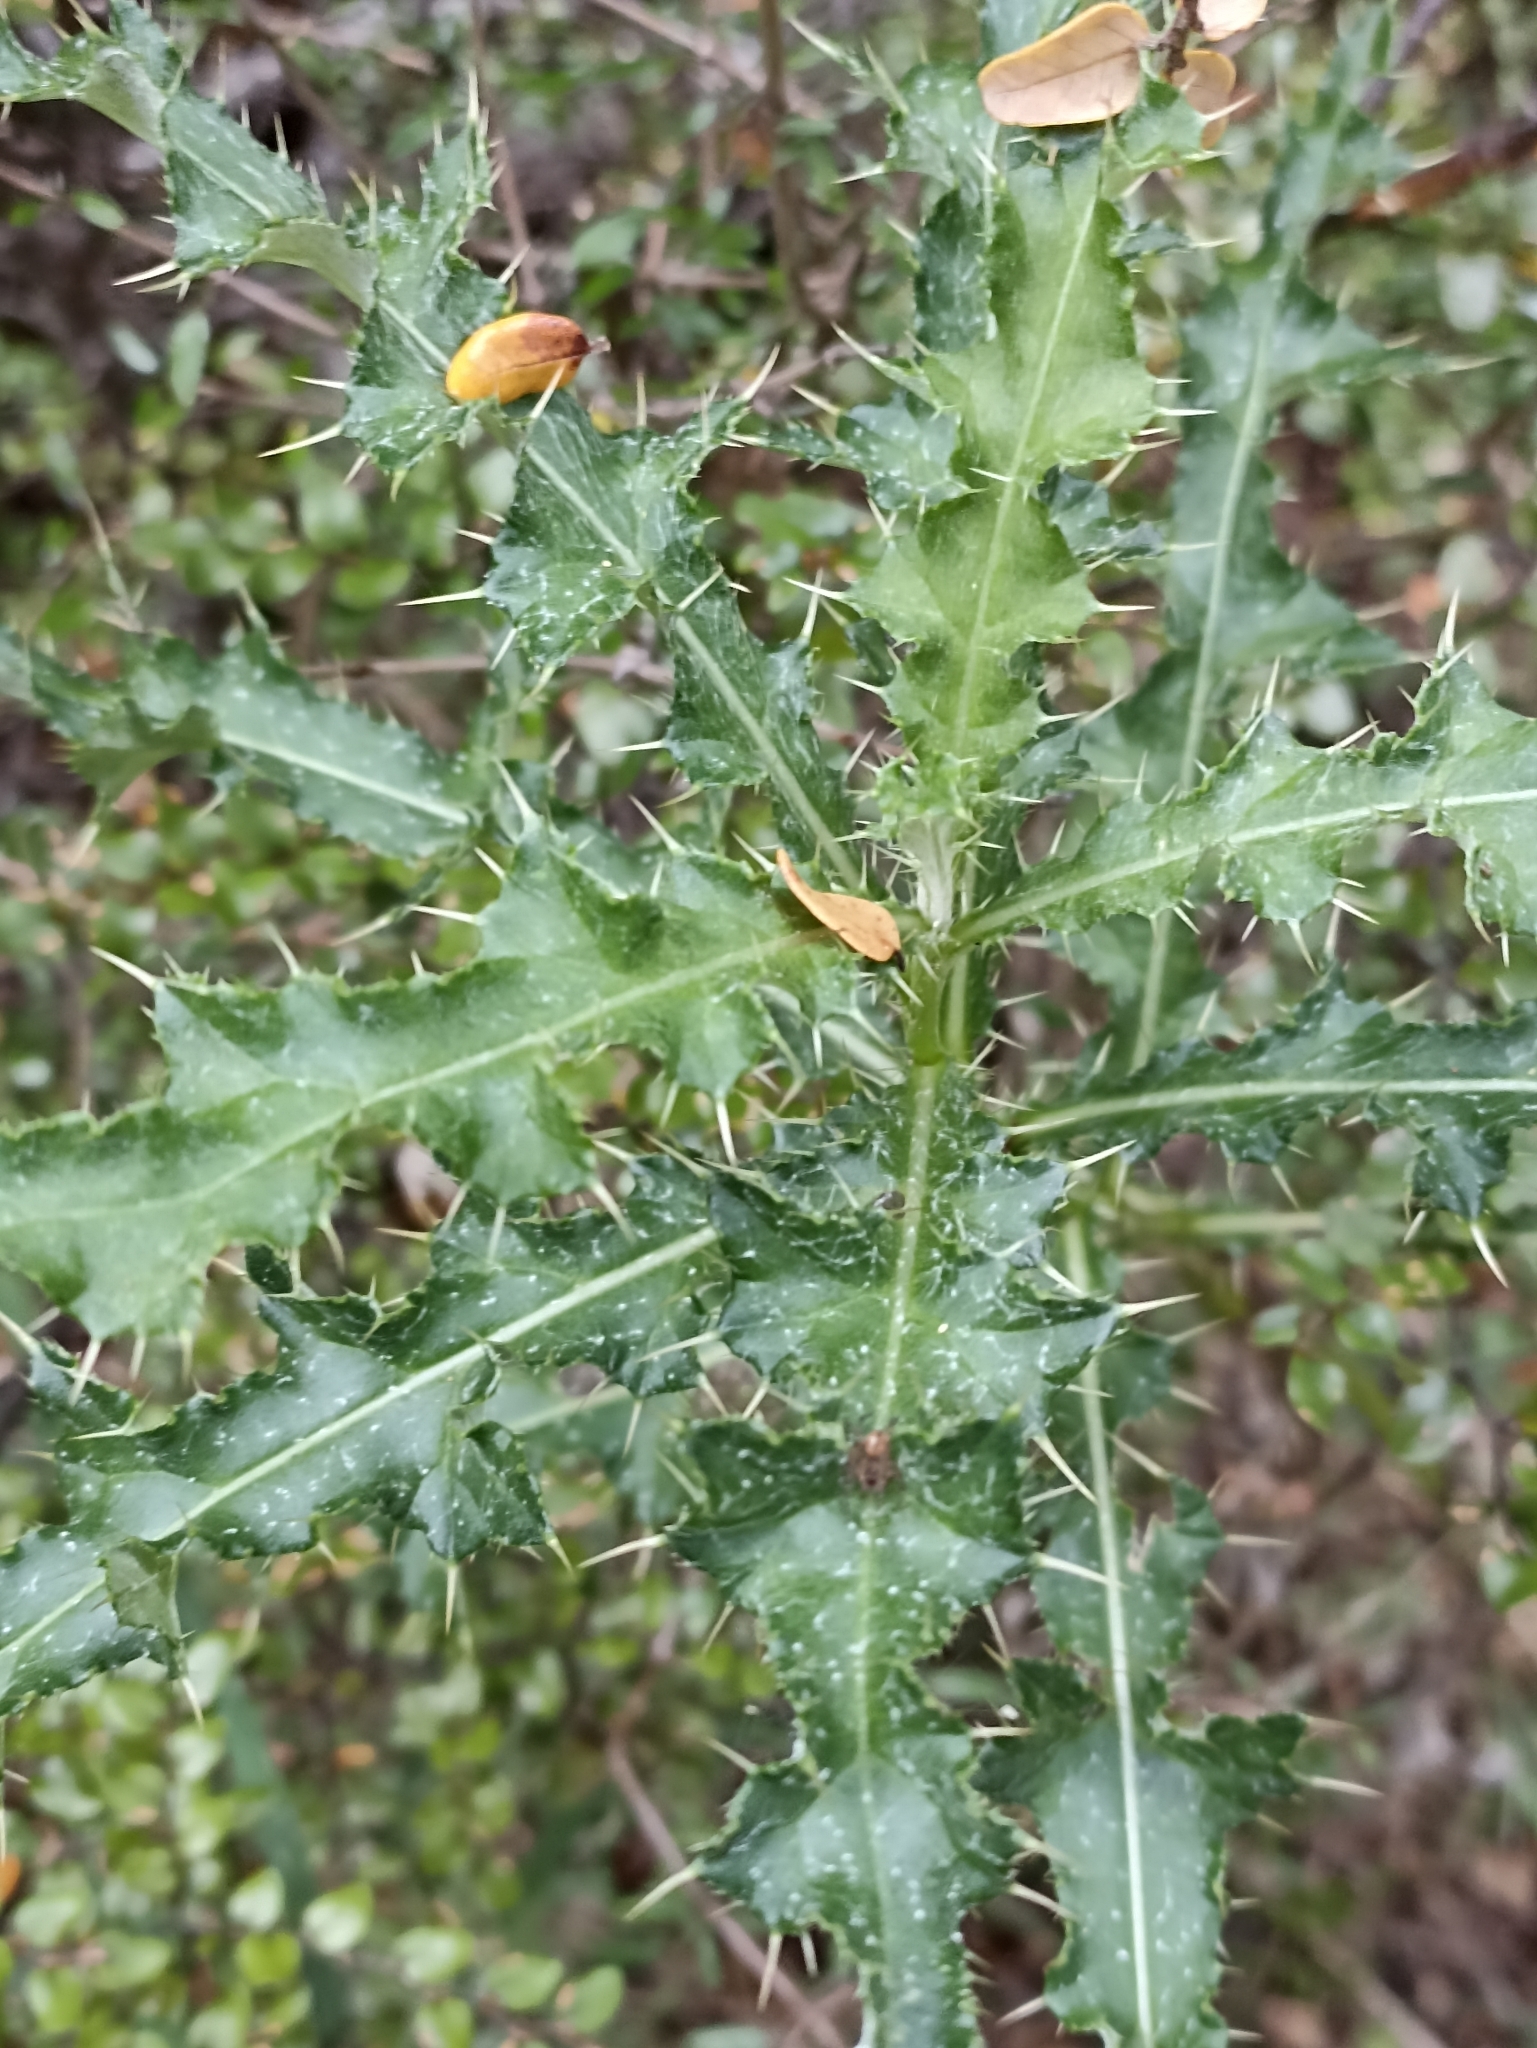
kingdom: Plantae
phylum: Tracheophyta
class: Magnoliopsida
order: Asterales
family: Asteraceae
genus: Cirsium
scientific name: Cirsium arvense
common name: Creeping thistle
